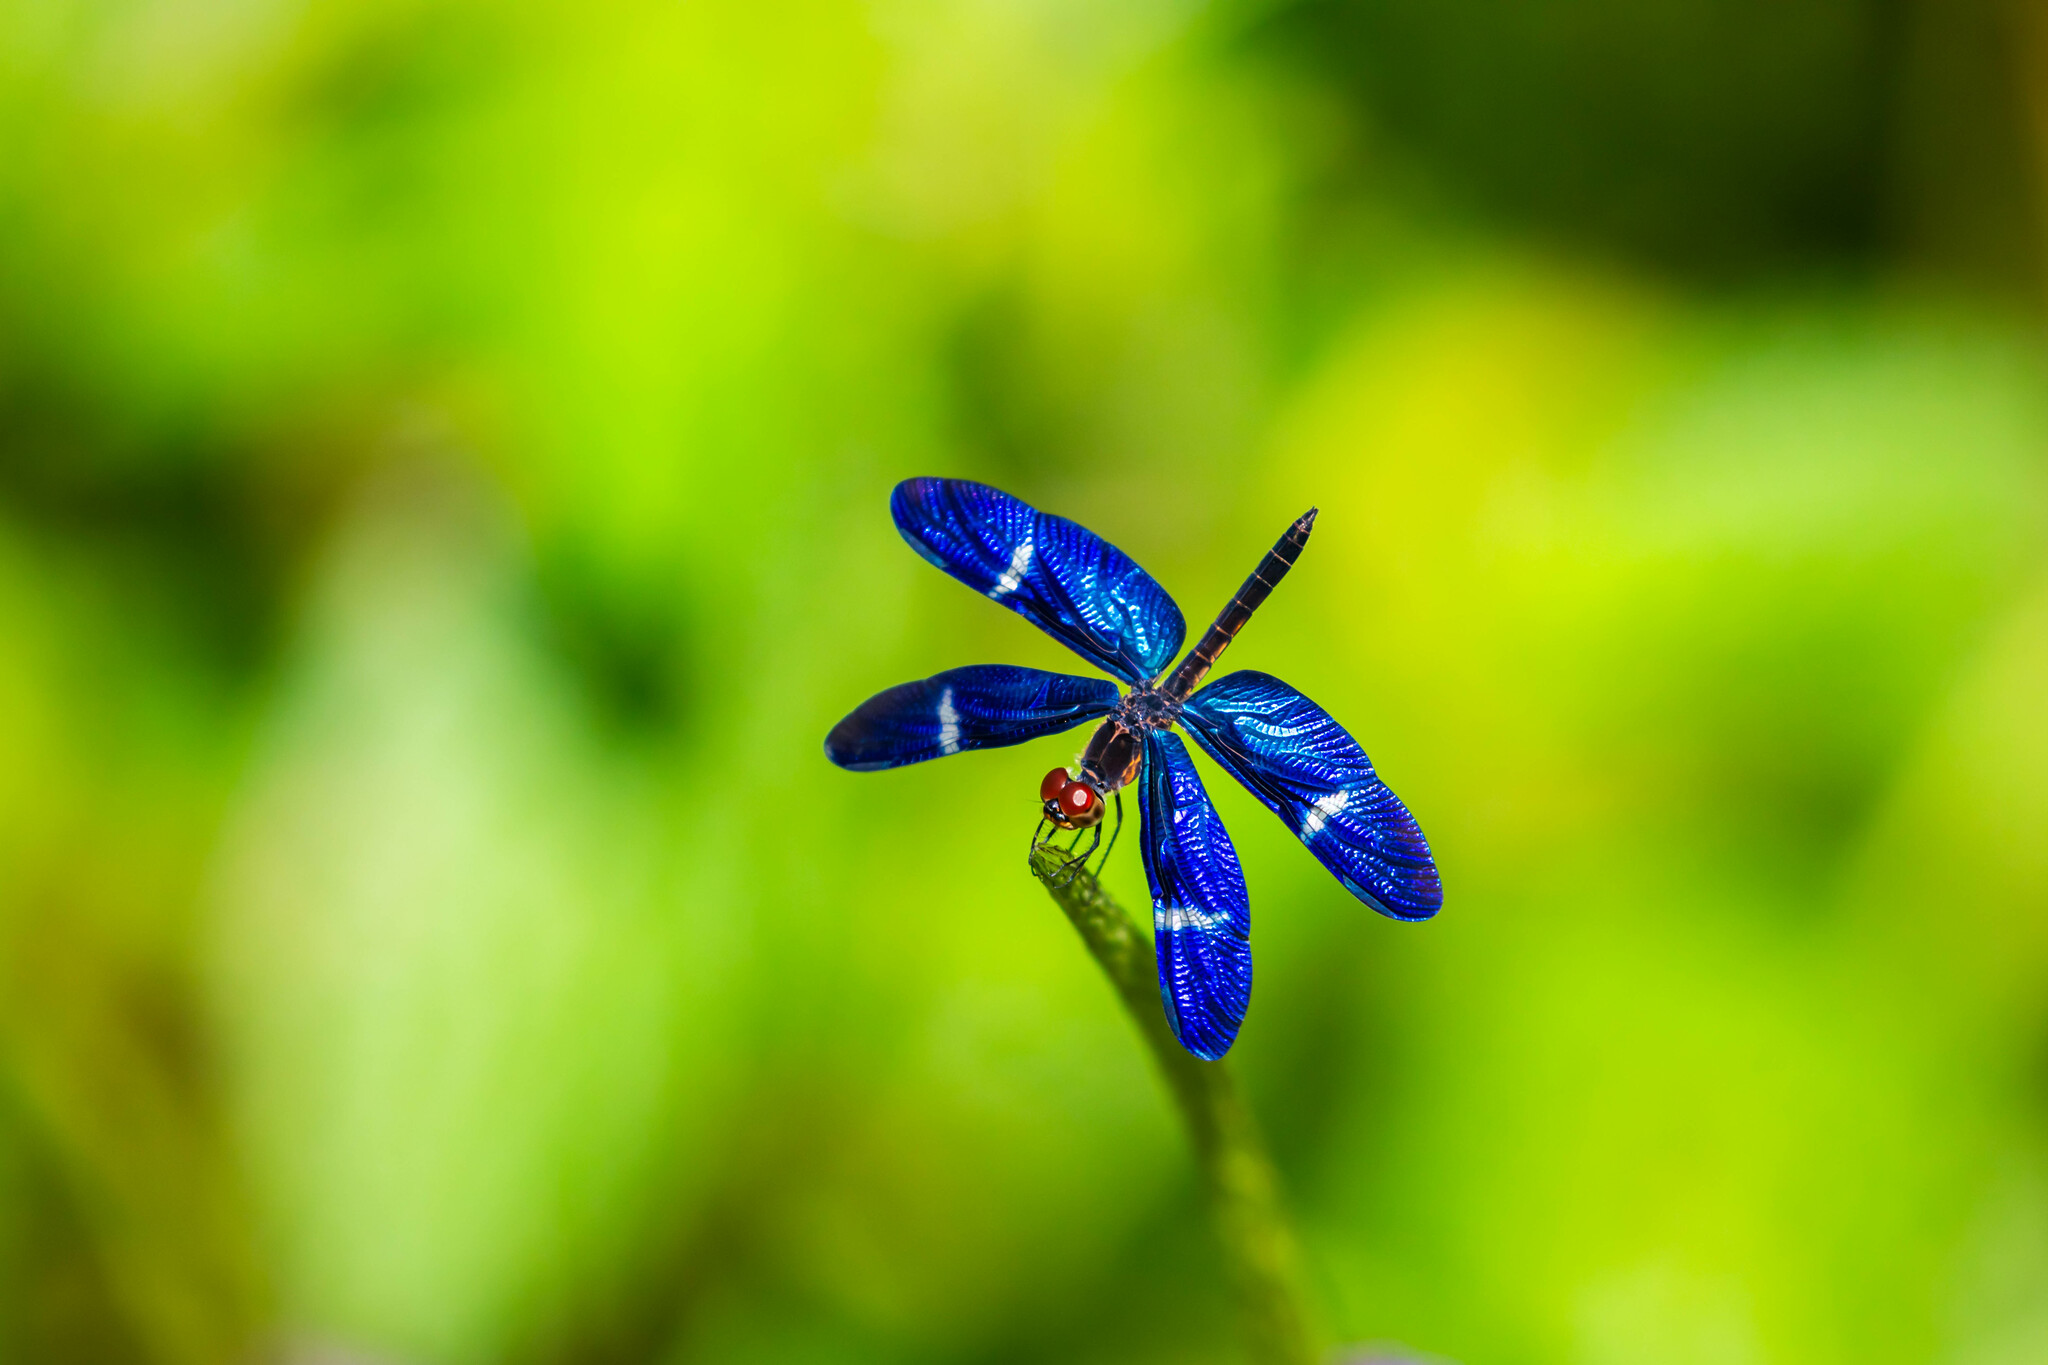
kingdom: Animalia
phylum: Arthropoda
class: Insecta
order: Odonata
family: Libellulidae
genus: Zenithoptera
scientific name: Zenithoptera fasciata
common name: Rainforest bluewing
